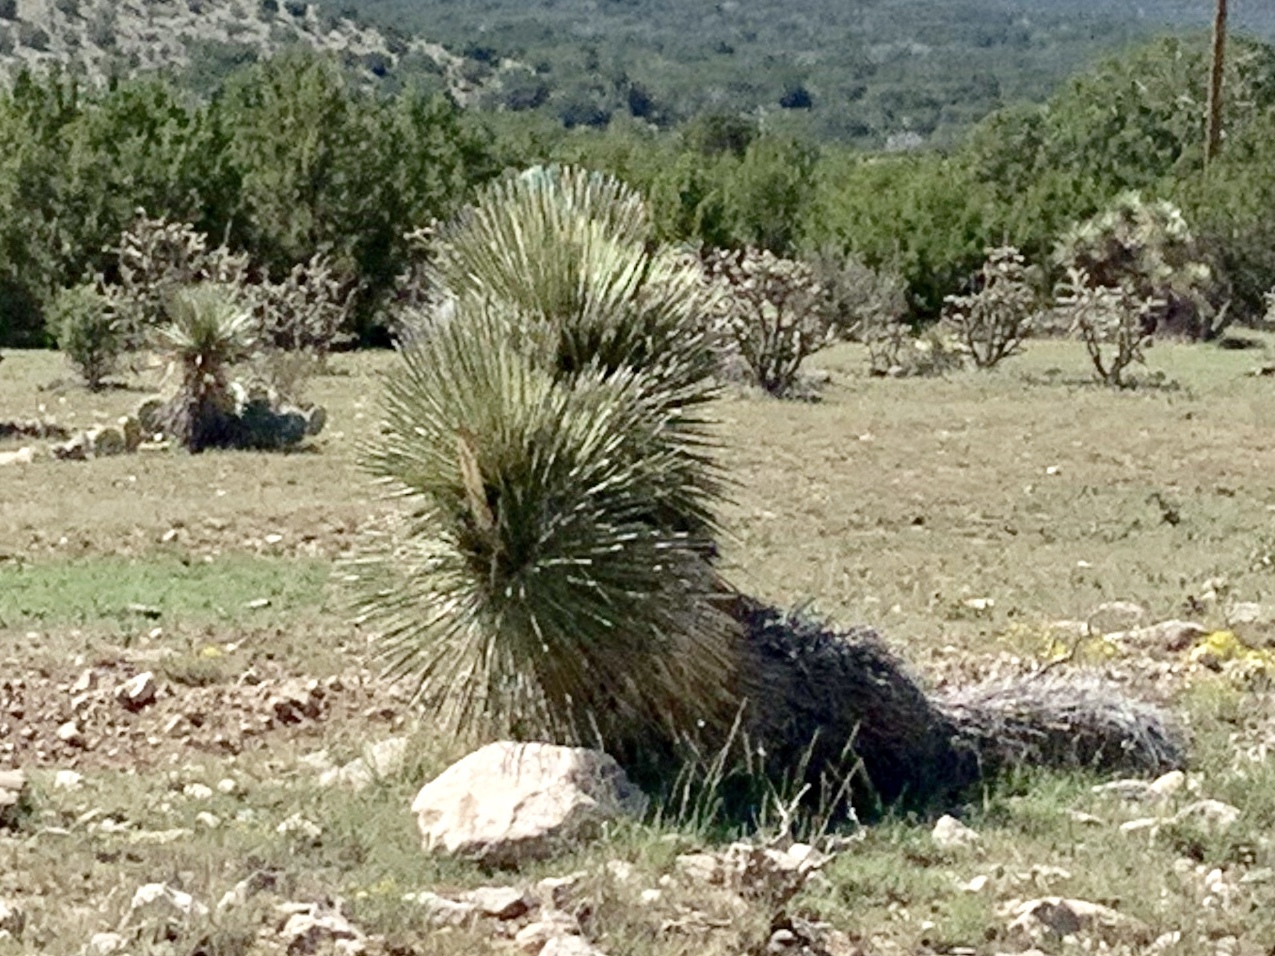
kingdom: Plantae
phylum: Tracheophyta
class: Liliopsida
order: Asparagales
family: Asparagaceae
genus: Yucca
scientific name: Yucca elata
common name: Palmella
